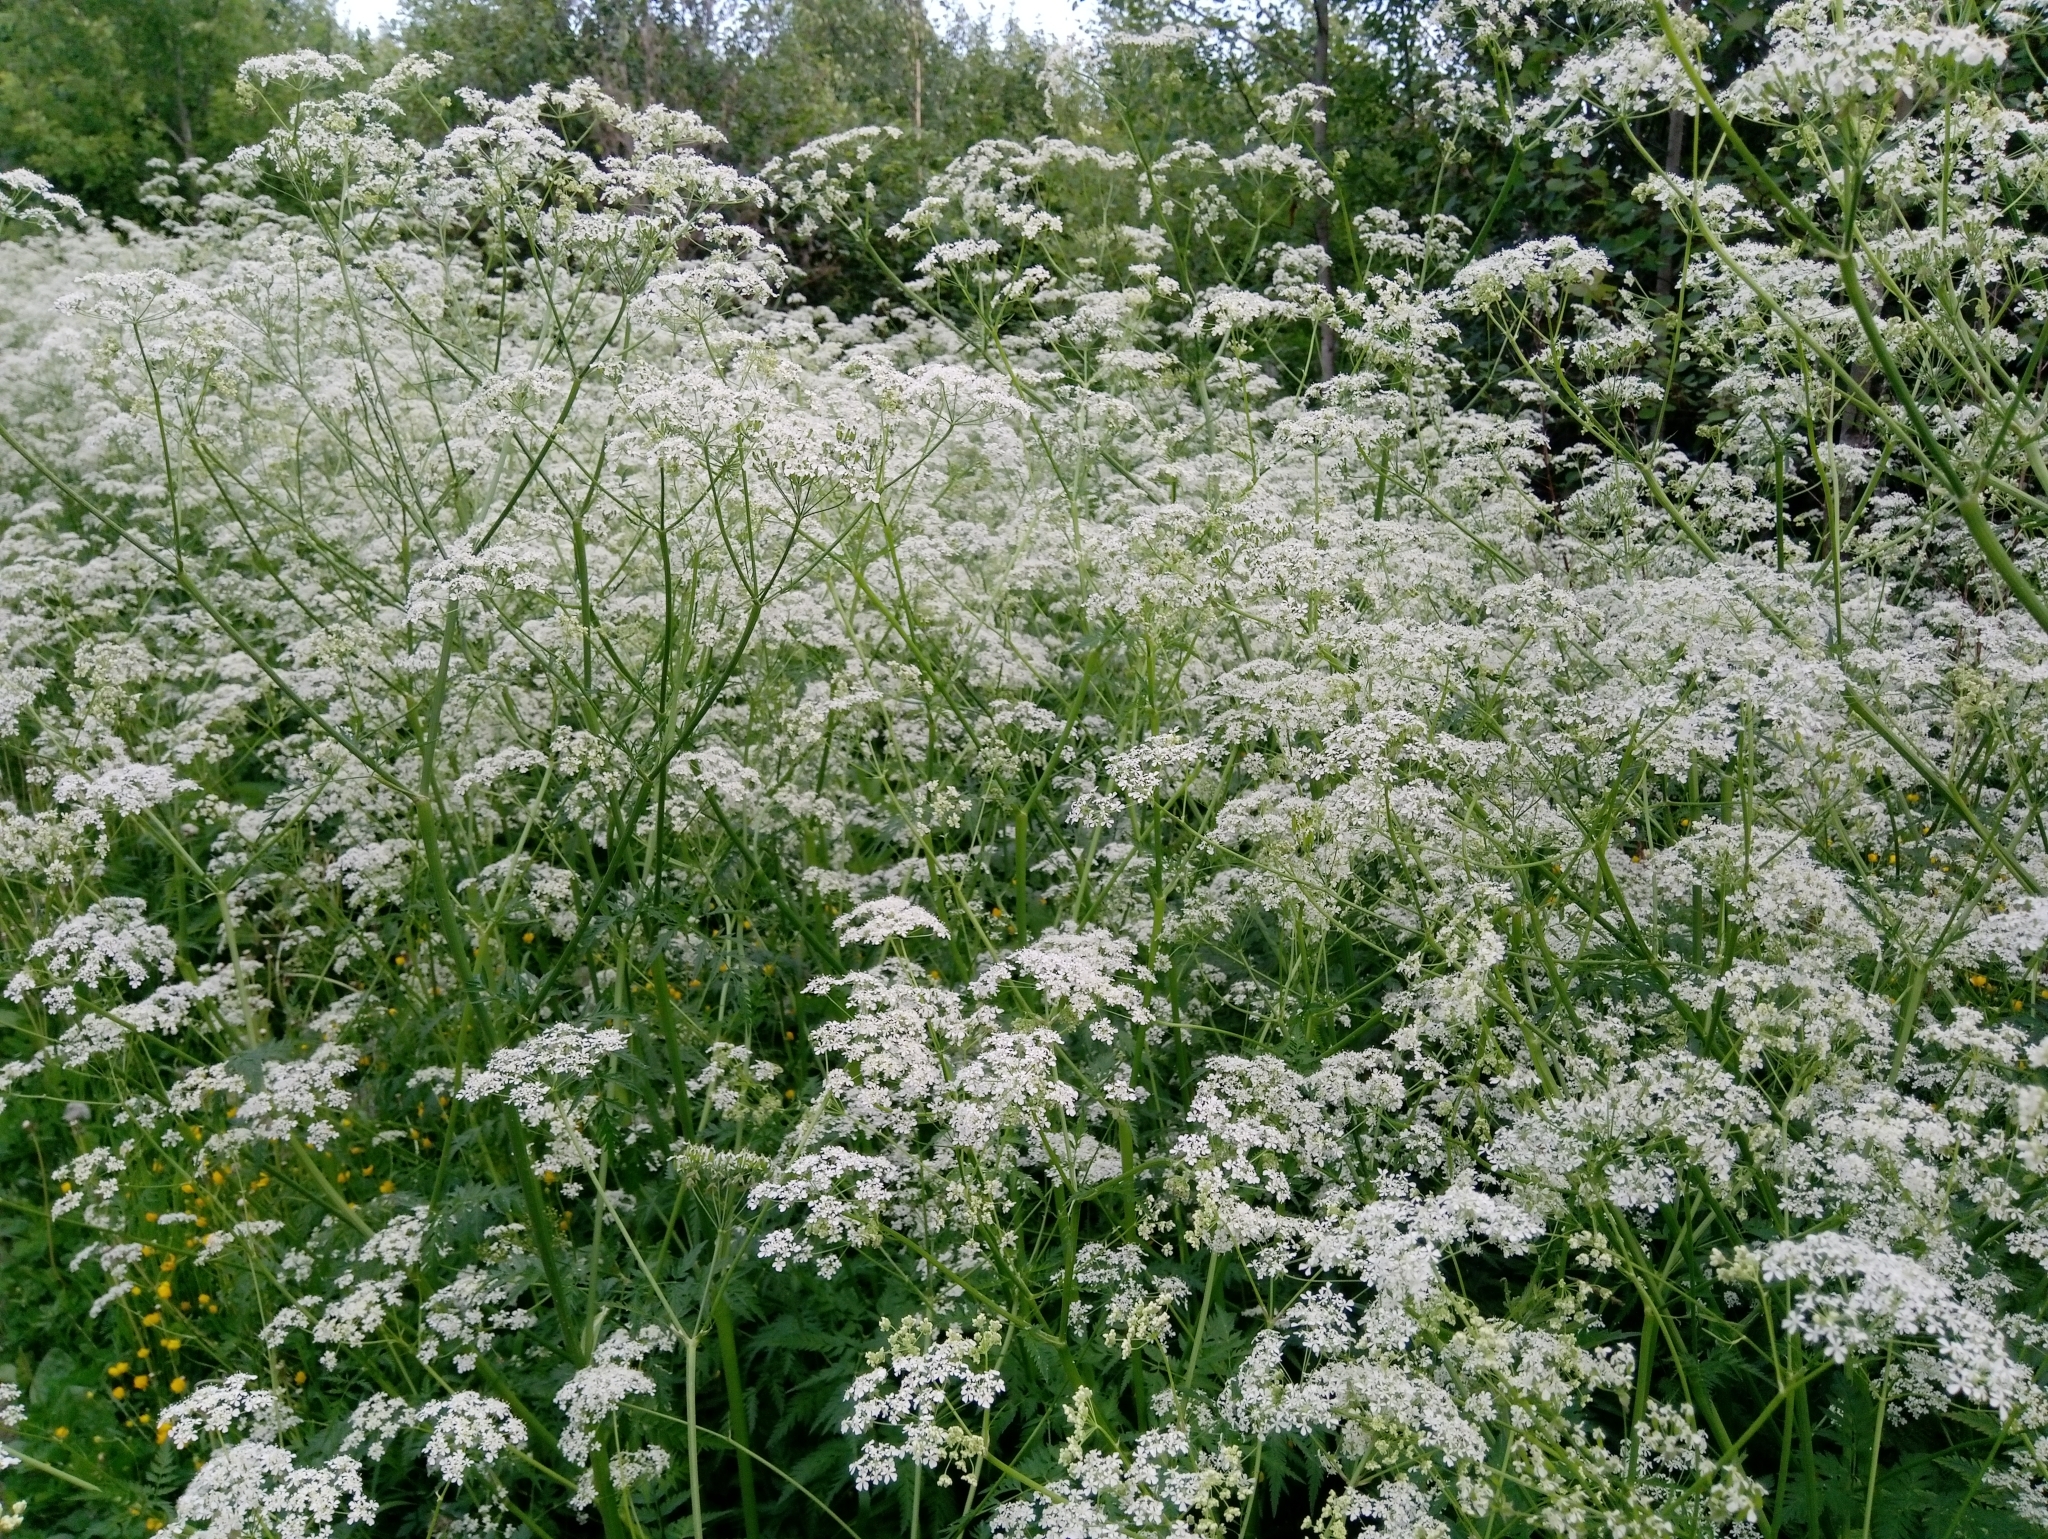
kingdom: Plantae
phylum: Tracheophyta
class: Magnoliopsida
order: Apiales
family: Apiaceae
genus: Anthriscus
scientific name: Anthriscus sylvestris
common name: Cow parsley
